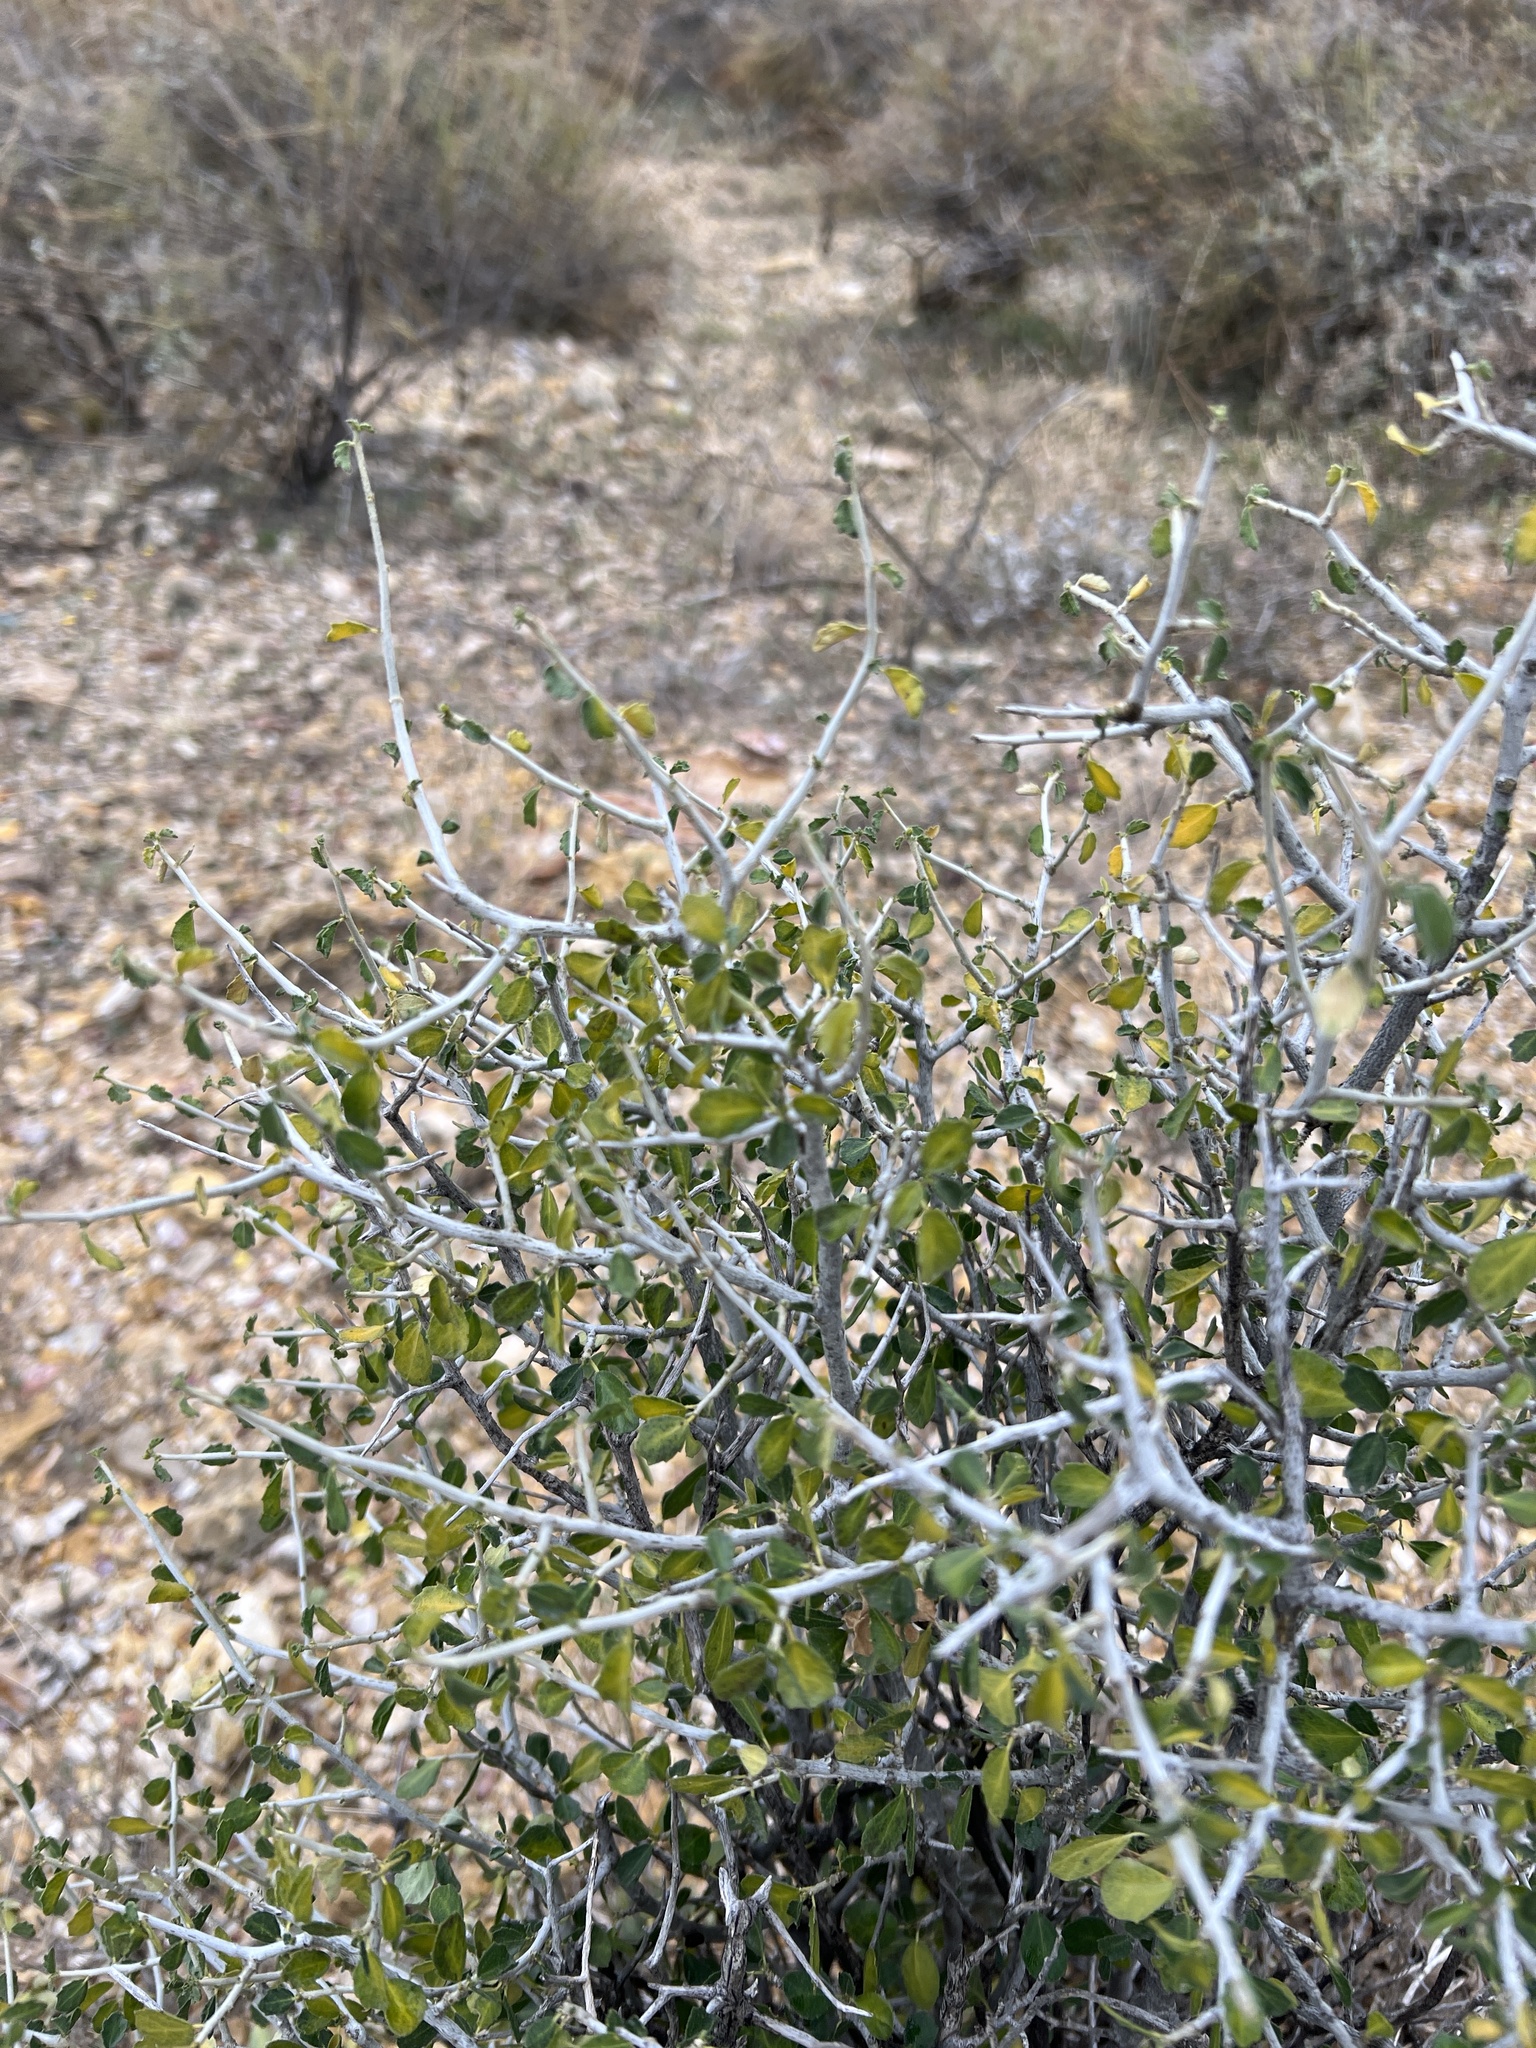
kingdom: Plantae
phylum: Tracheophyta
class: Magnoliopsida
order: Rosales
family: Rhamnaceae
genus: Sarcomphalus
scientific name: Sarcomphalus obtusifolius
